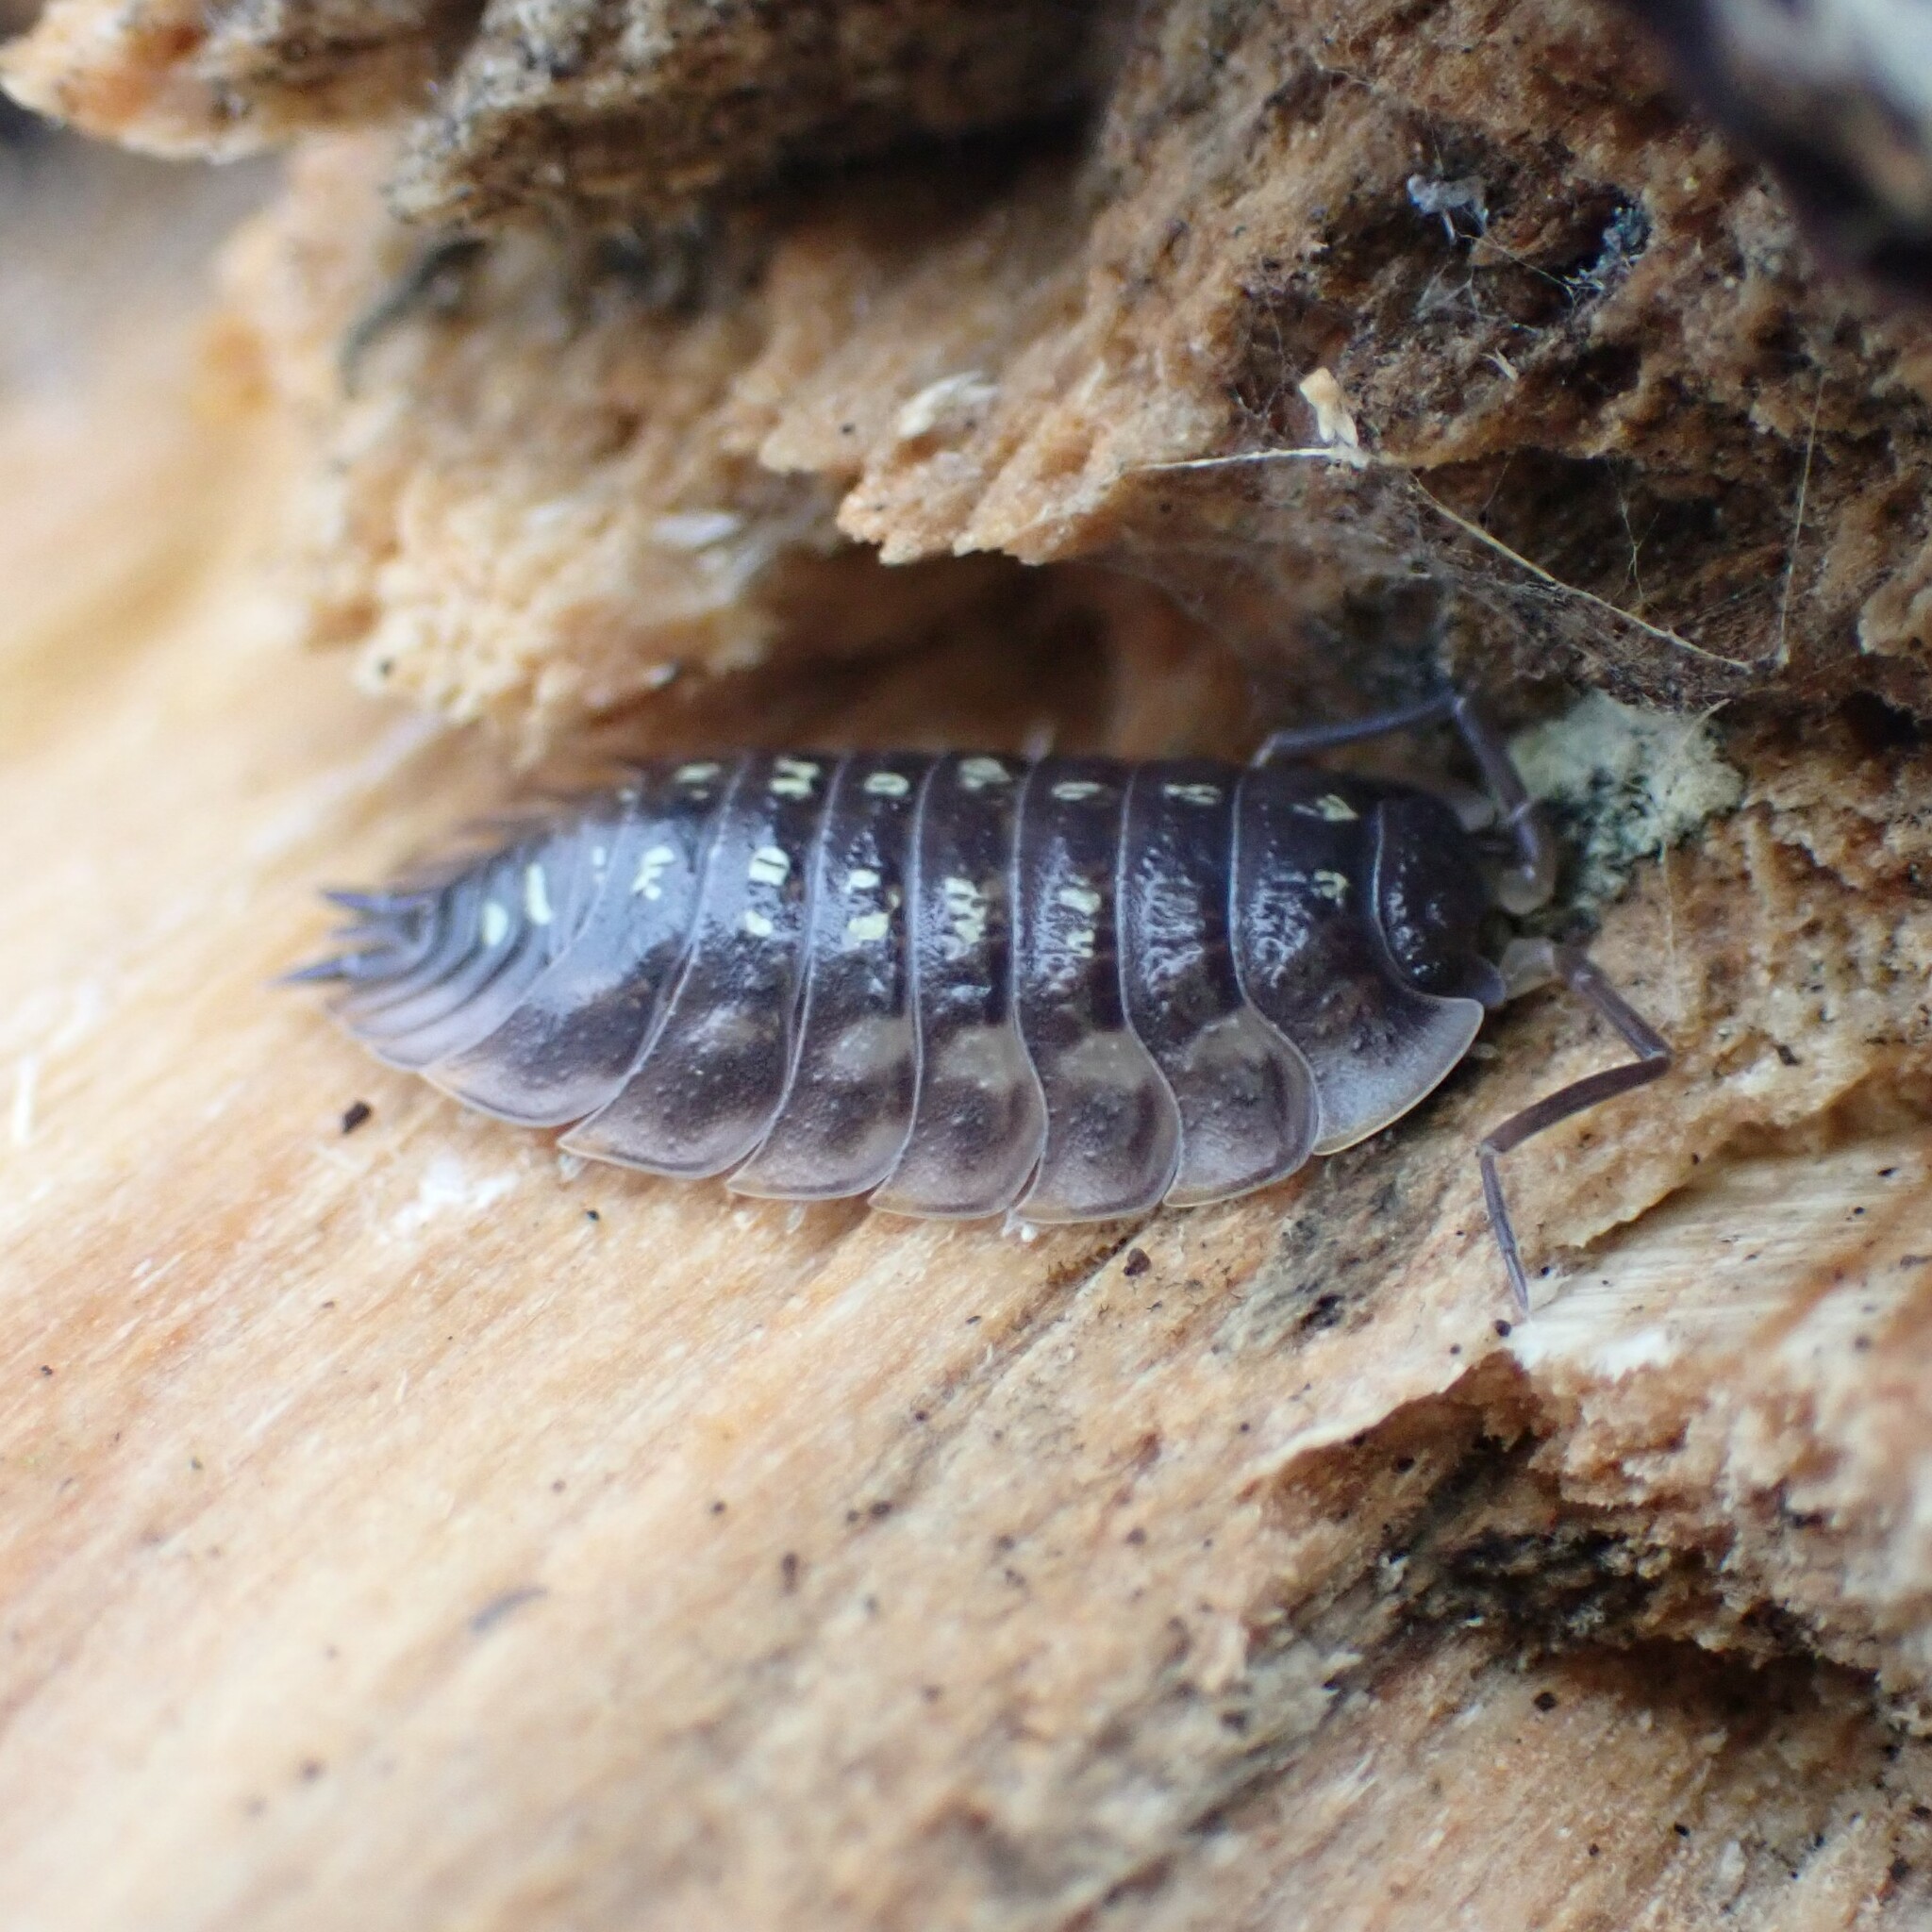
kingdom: Animalia
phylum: Arthropoda
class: Malacostraca
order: Isopoda
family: Oniscidae
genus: Oniscus
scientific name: Oniscus asellus
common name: Common shiny woodlouse
